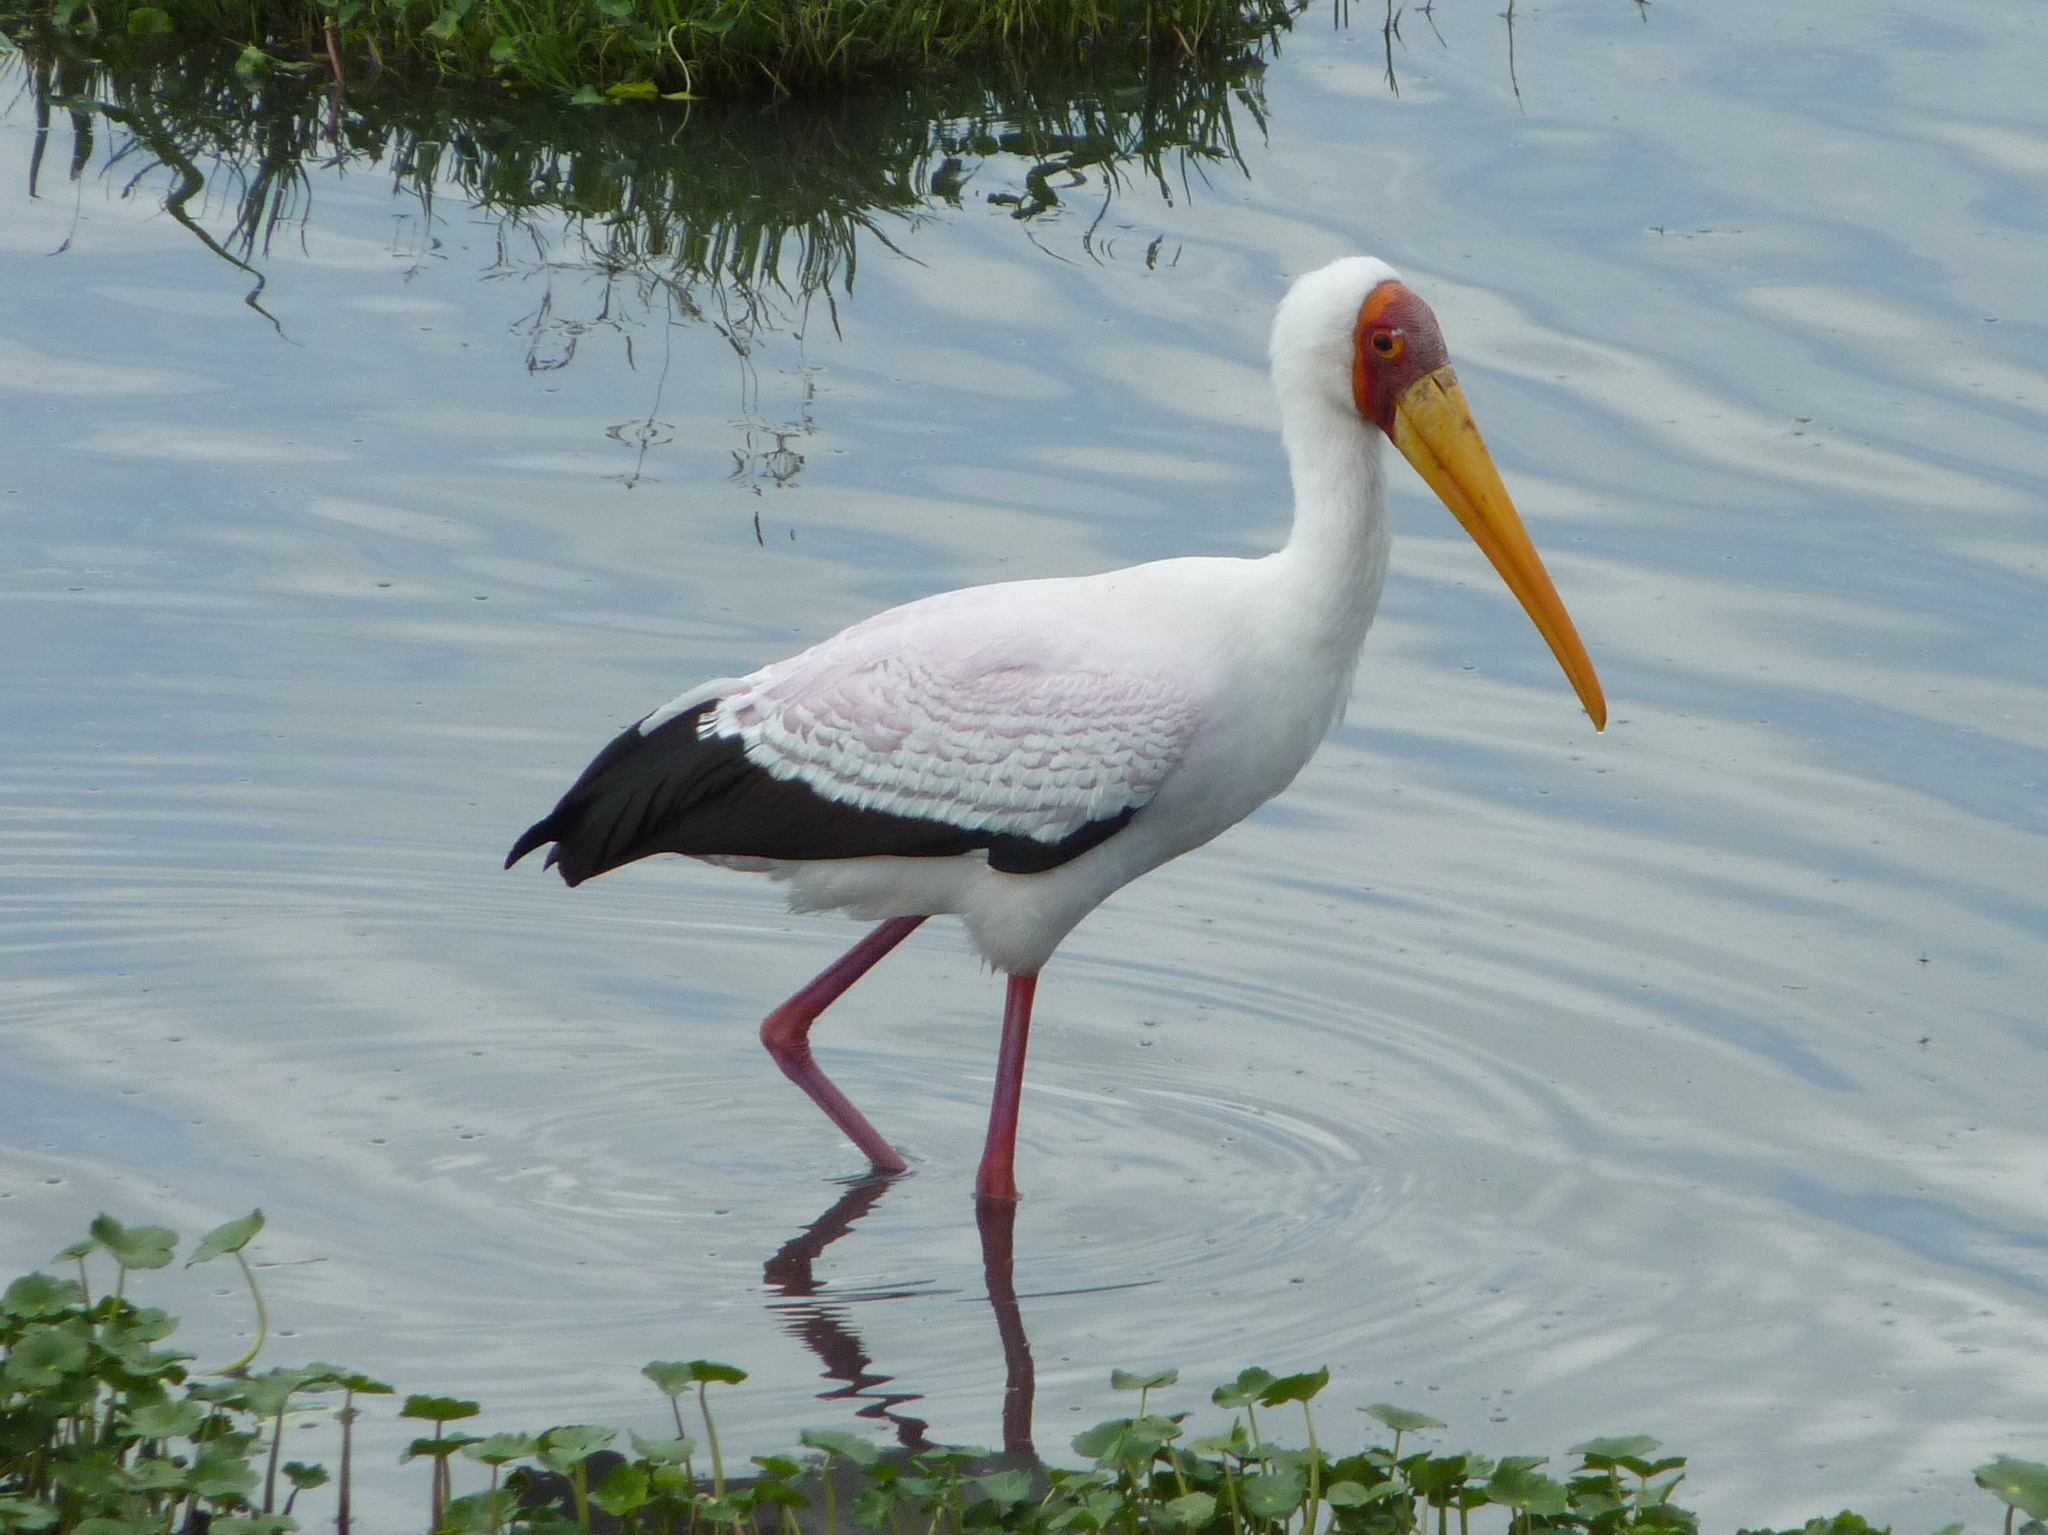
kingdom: Animalia
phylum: Chordata
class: Aves
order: Ciconiiformes
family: Ciconiidae
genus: Mycteria
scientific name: Mycteria ibis
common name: Yellow-billed stork
